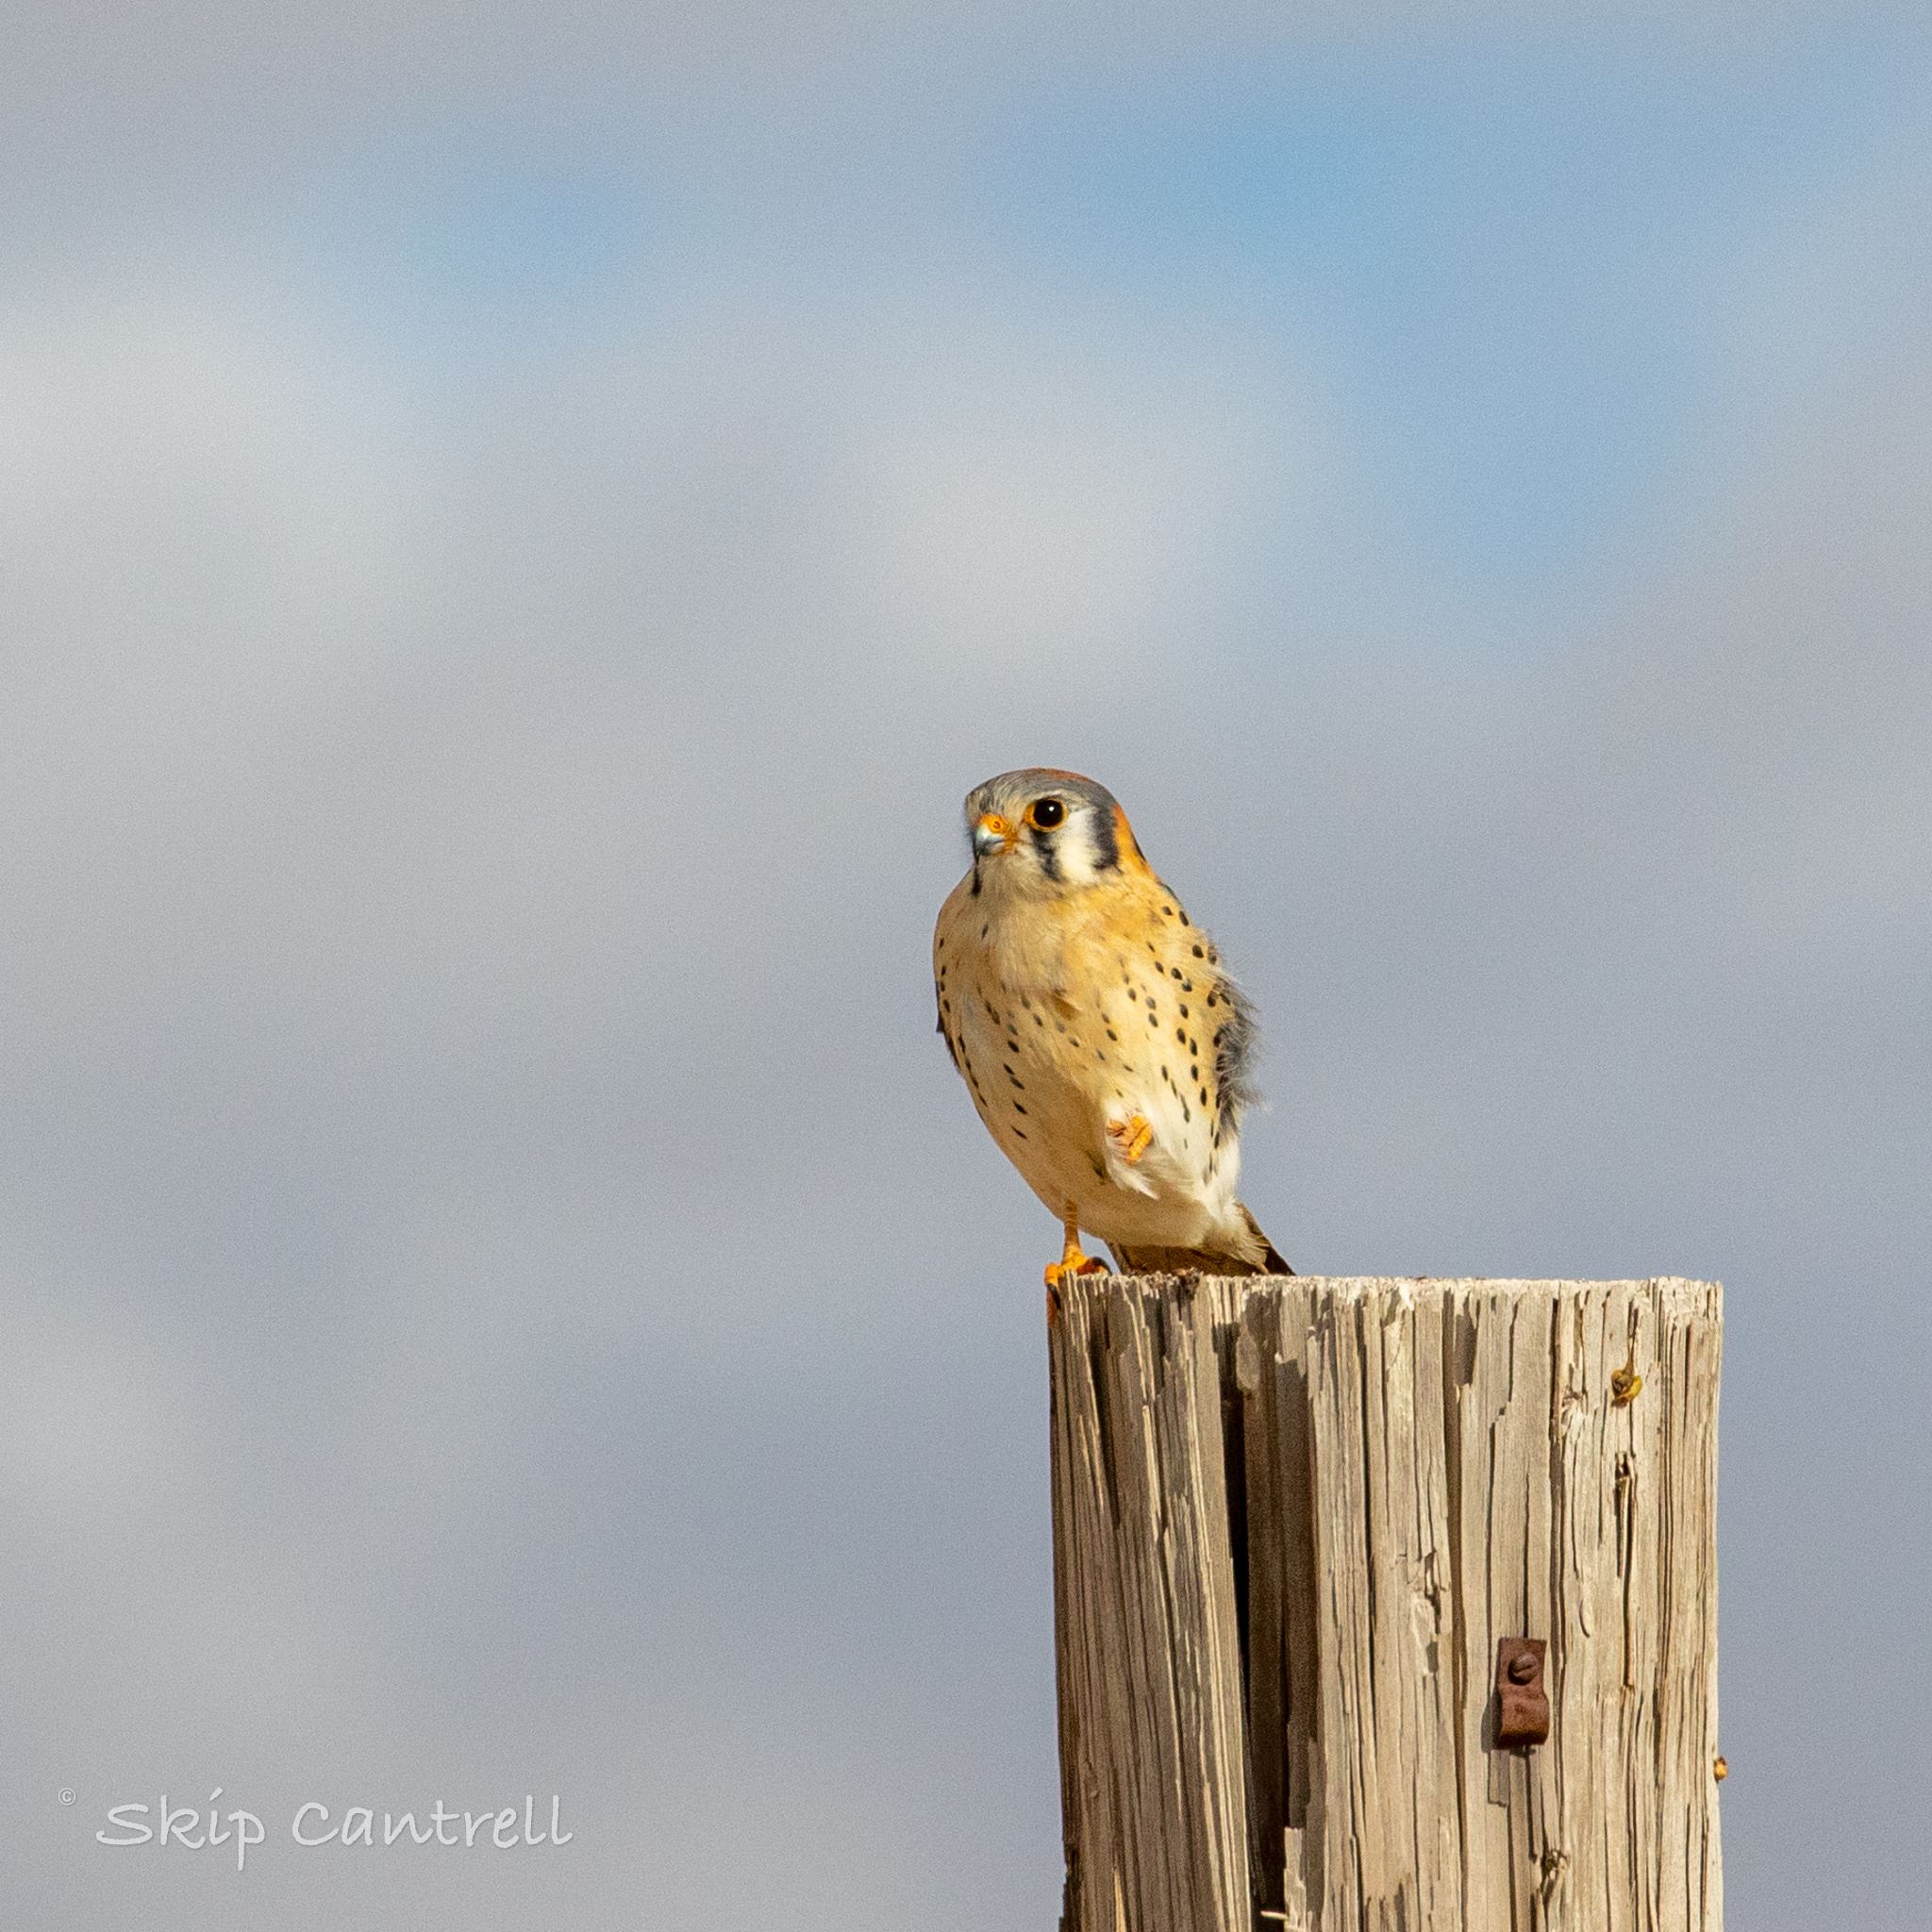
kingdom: Animalia
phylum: Chordata
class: Aves
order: Falconiformes
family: Falconidae
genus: Falco
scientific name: Falco sparverius
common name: American kestrel
